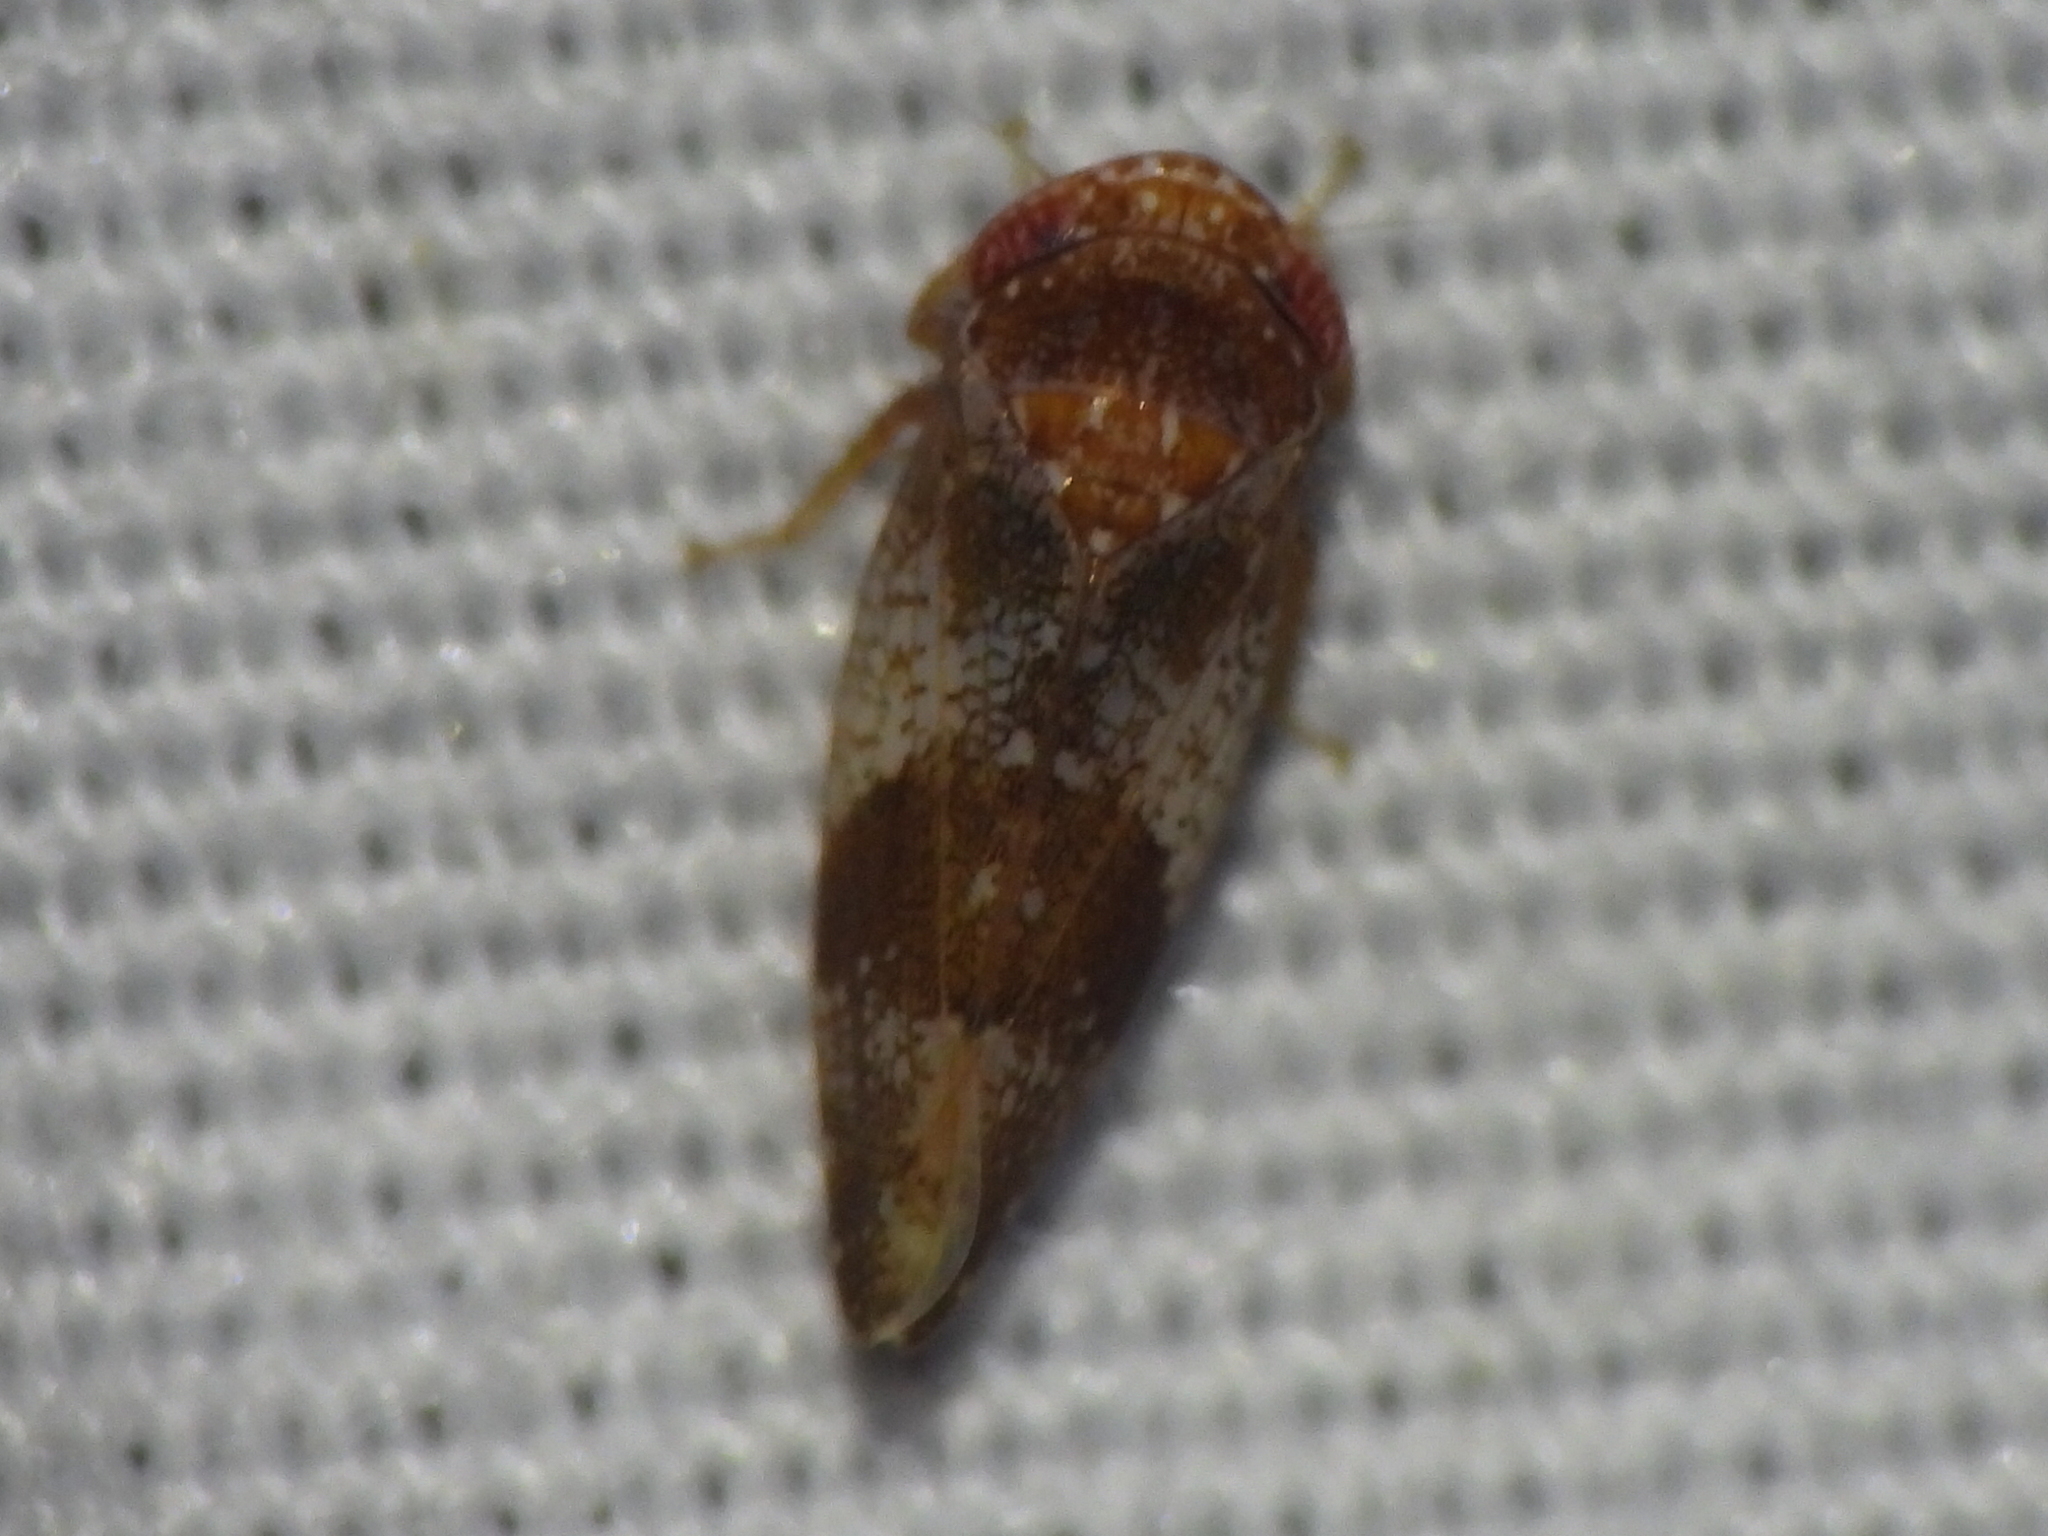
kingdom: Animalia
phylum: Arthropoda
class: Insecta
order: Hemiptera
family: Cicadellidae
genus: Norvellina
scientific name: Norvellina helenae
